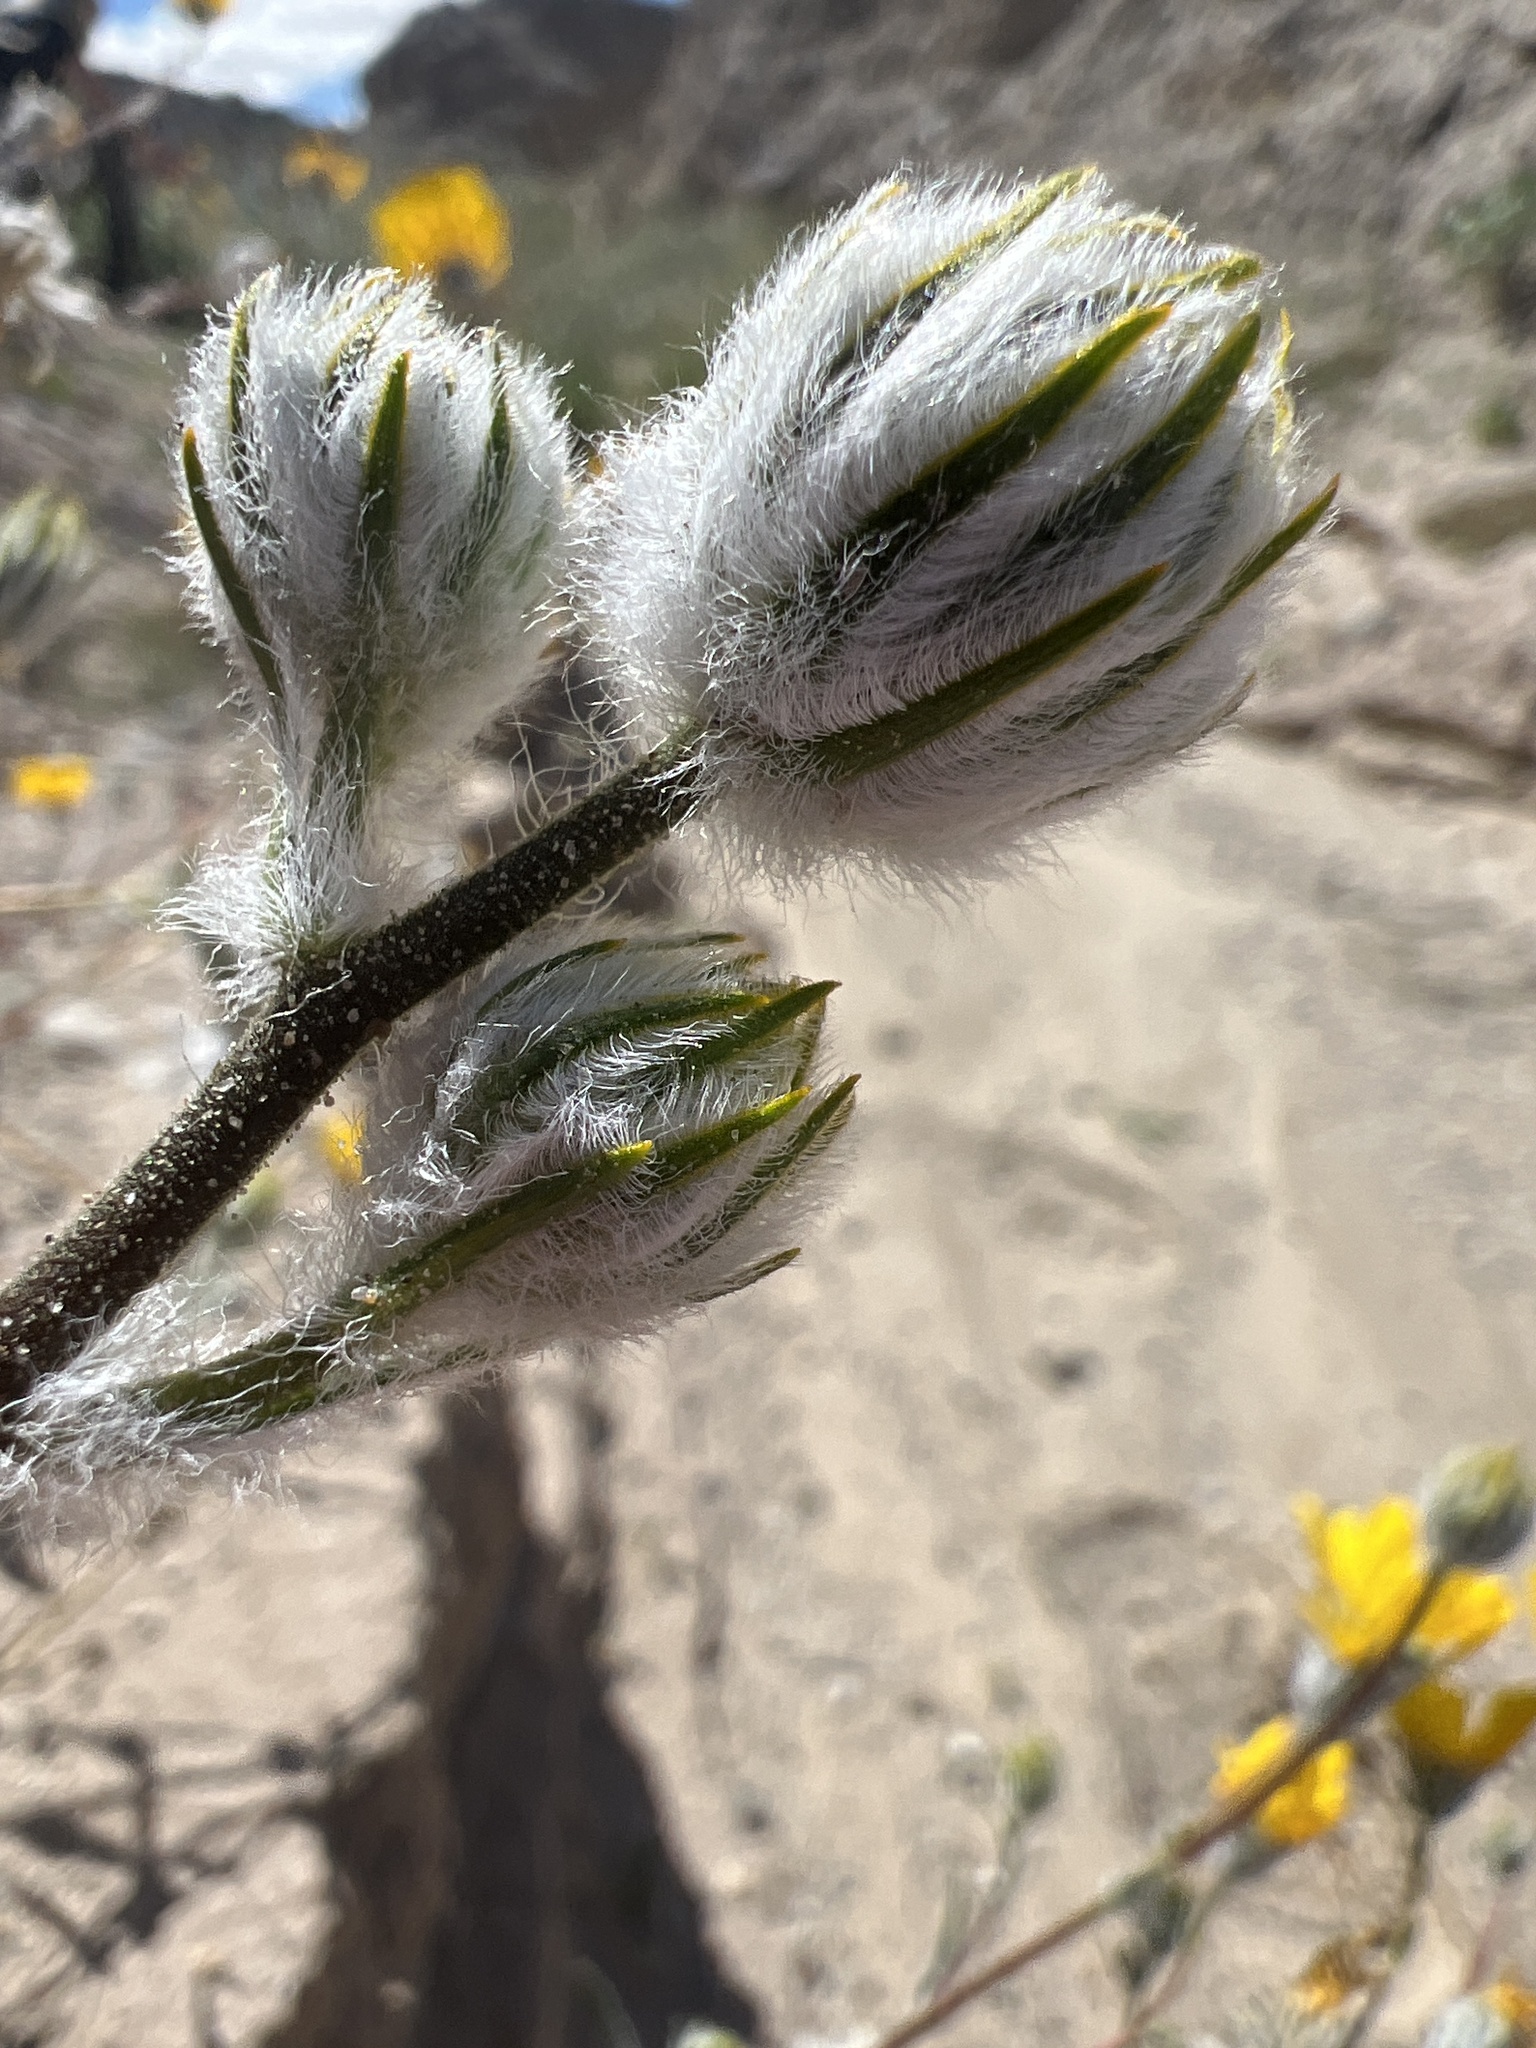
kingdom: Plantae
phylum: Tracheophyta
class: Magnoliopsida
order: Asterales
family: Asteraceae
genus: Geraea
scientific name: Geraea canescens
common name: Desert-gold
